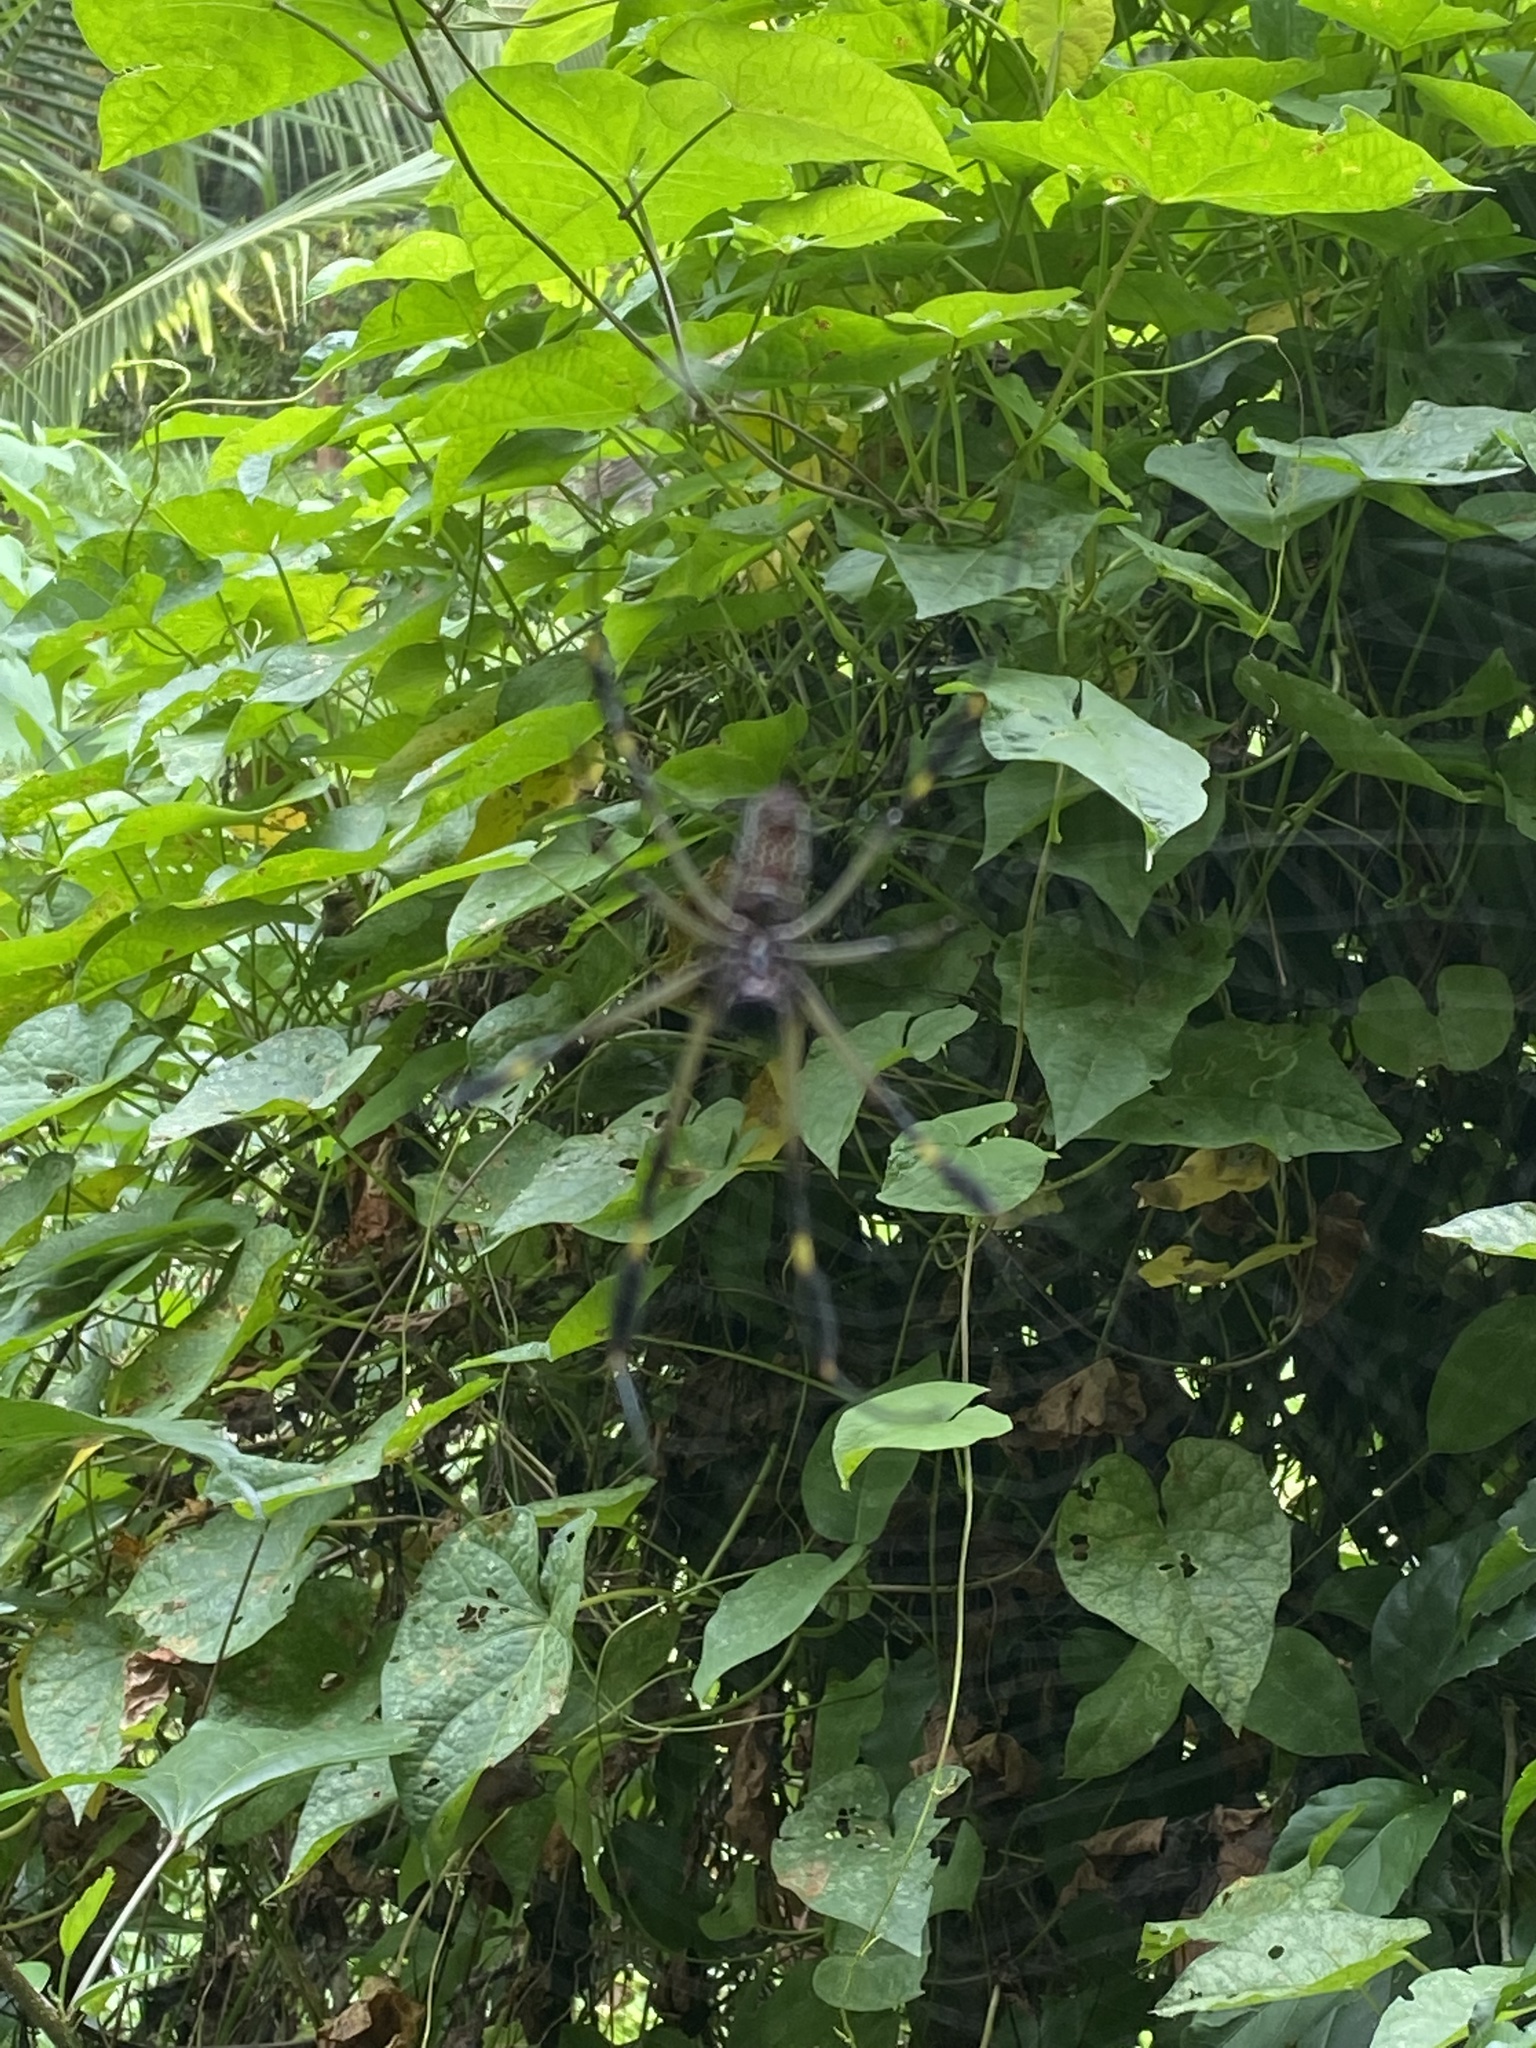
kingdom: Animalia
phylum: Arthropoda
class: Arachnida
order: Araneae
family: Araneidae
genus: Trichonephila
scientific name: Trichonephila clavipes
